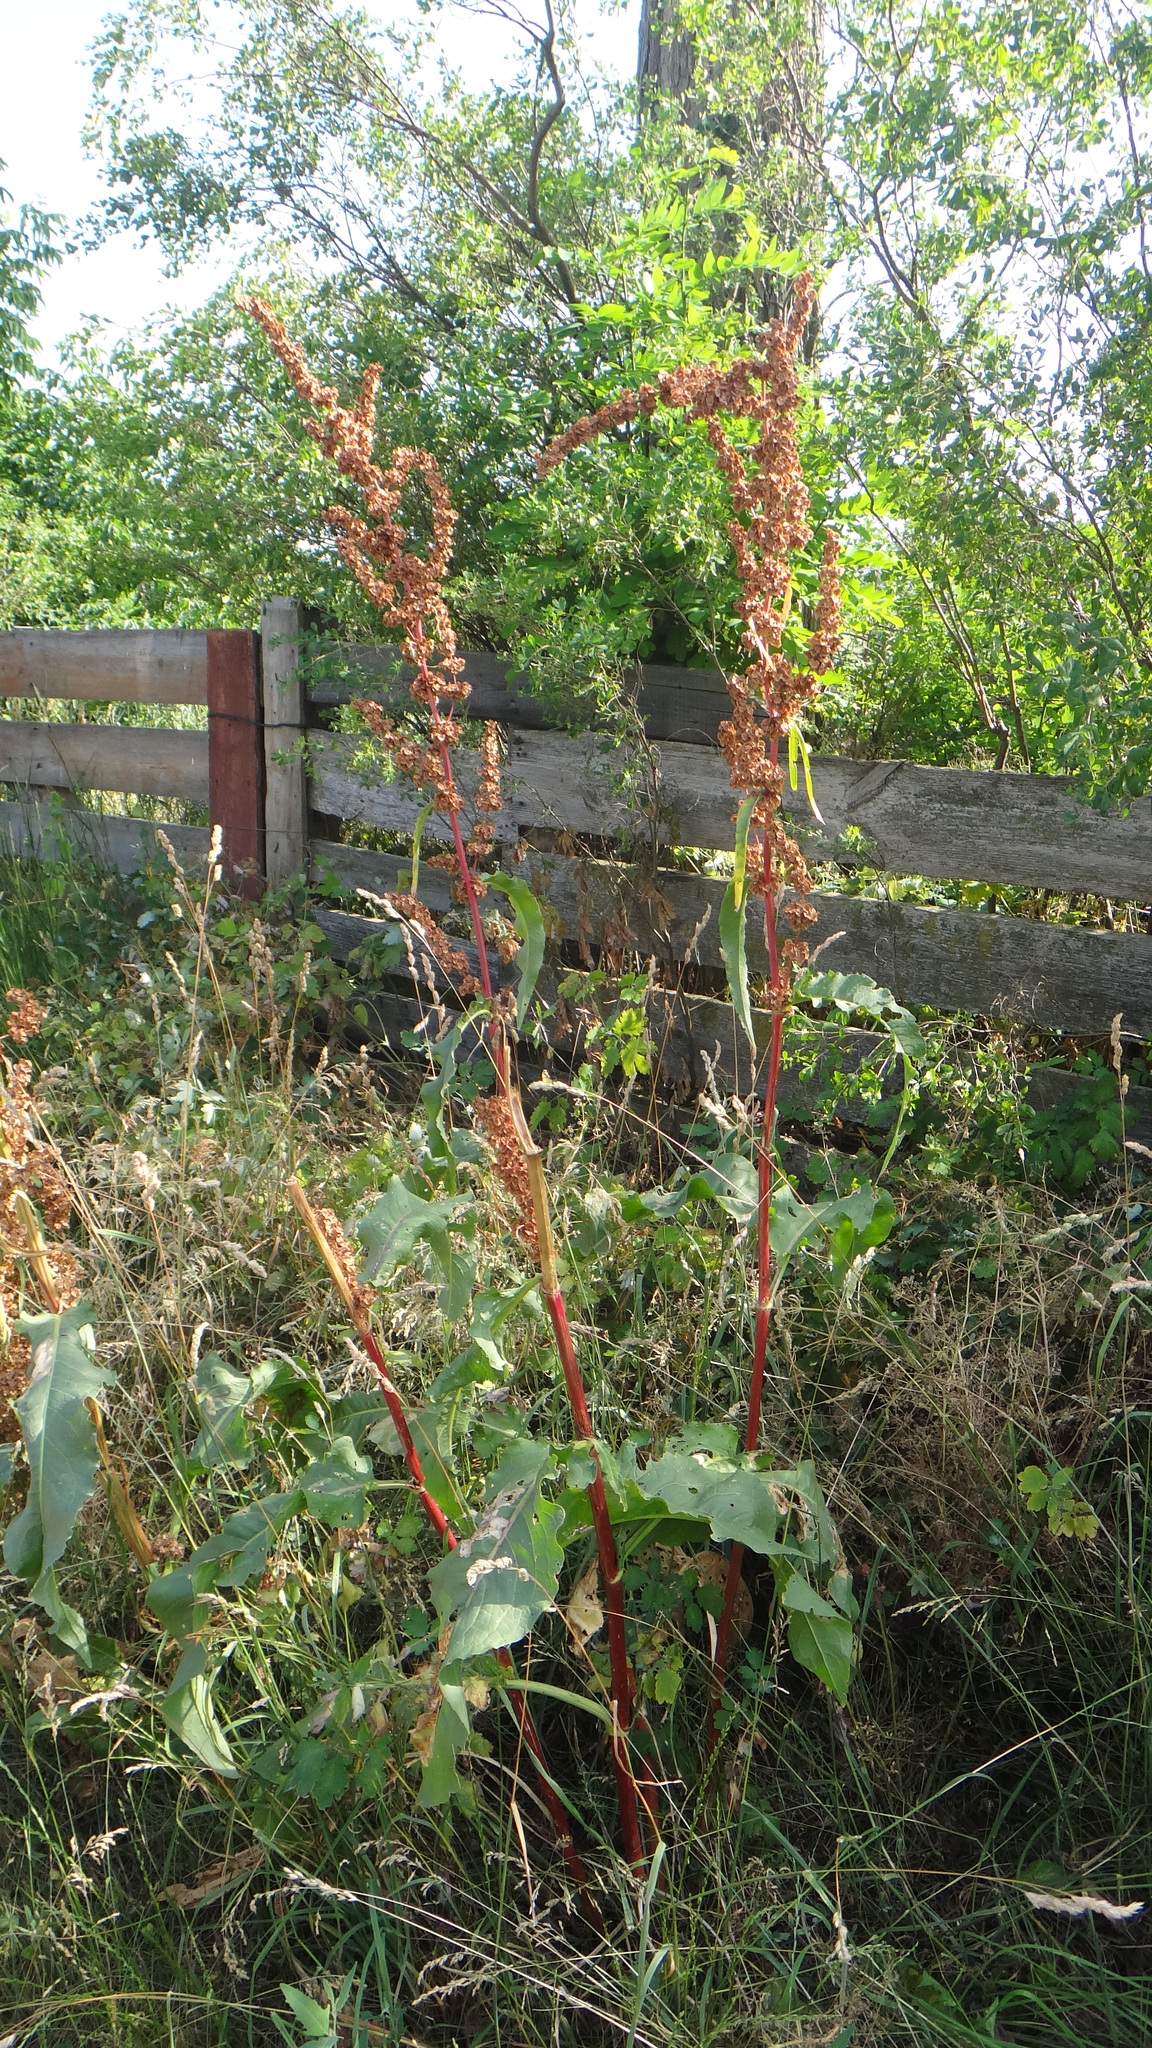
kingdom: Plantae
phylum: Tracheophyta
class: Magnoliopsida
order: Caryophyllales
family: Polygonaceae
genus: Rumex
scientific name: Rumex patientia
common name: Patience dock
